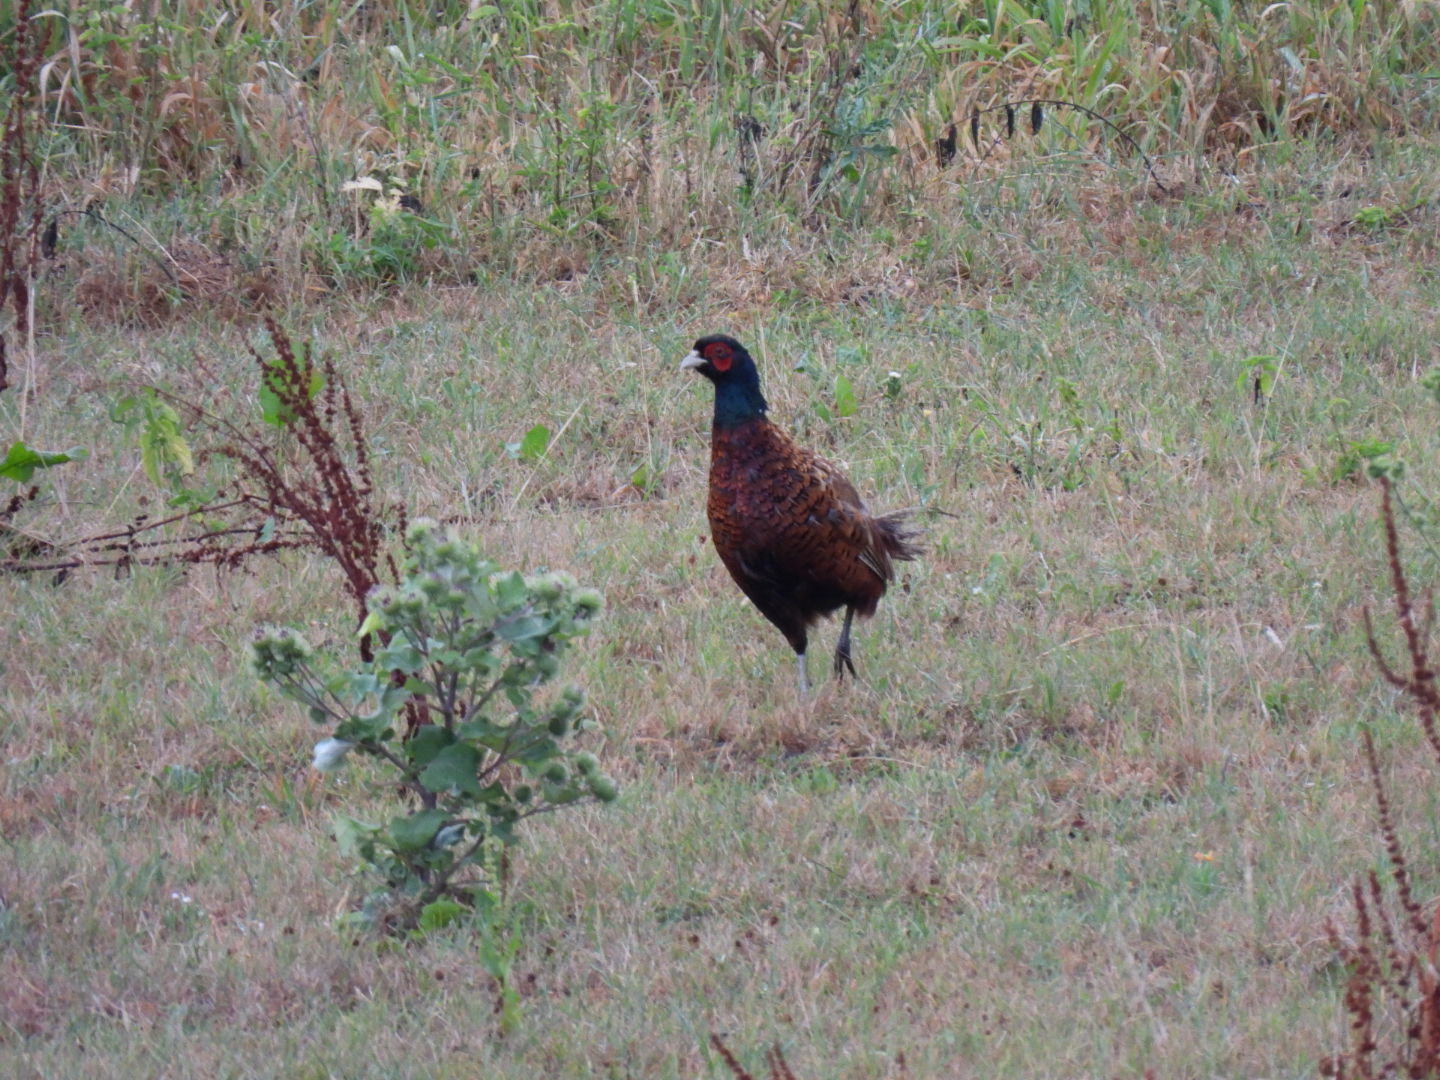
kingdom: Animalia
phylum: Chordata
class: Aves
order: Galliformes
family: Phasianidae
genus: Phasianus
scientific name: Phasianus colchicus
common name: Common pheasant
